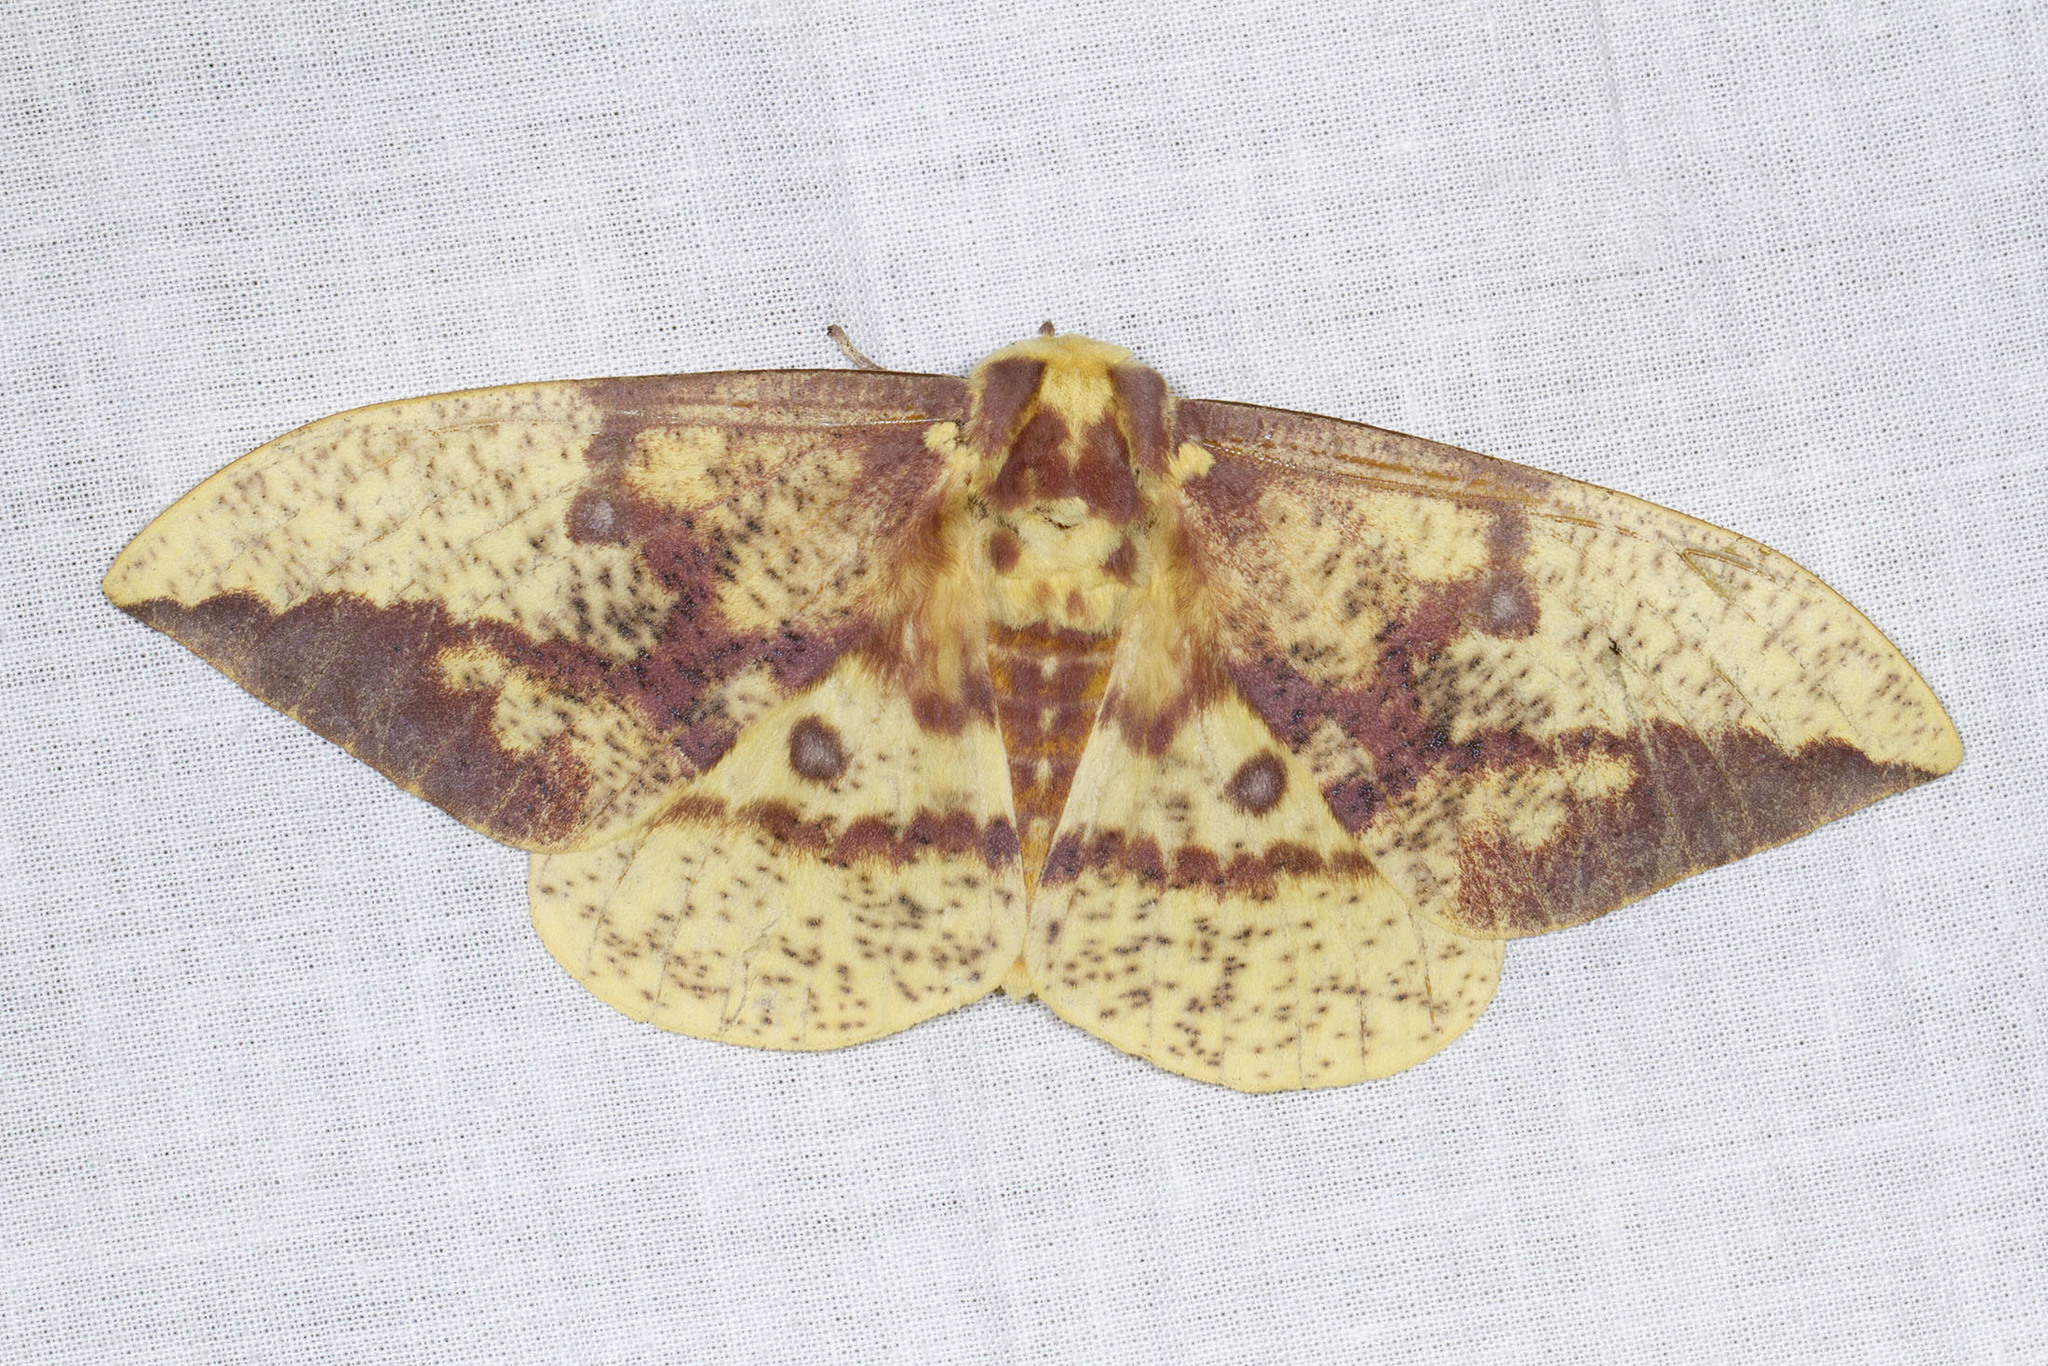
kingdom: Animalia
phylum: Arthropoda
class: Insecta
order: Lepidoptera
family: Saturniidae
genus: Eacles
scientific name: Eacles imperialis
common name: Imperial moth
